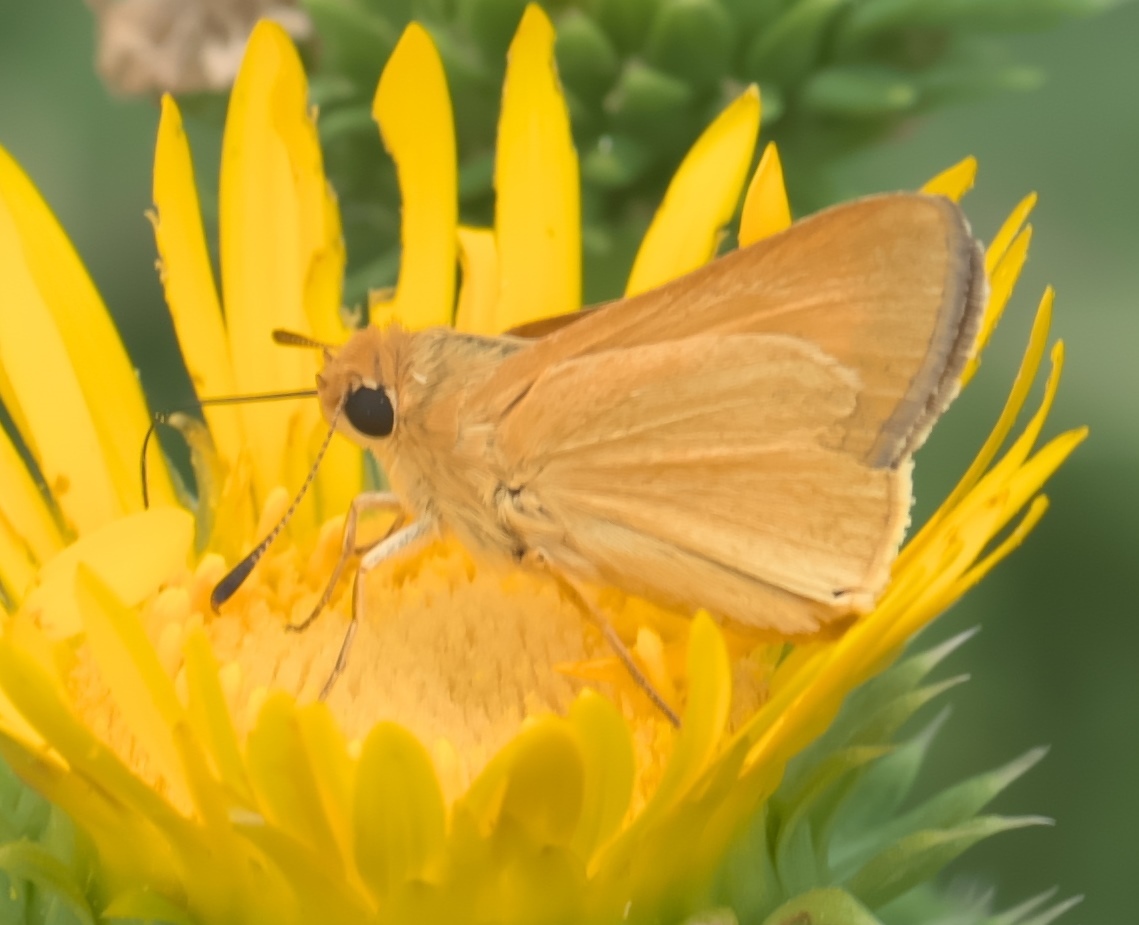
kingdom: Animalia
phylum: Arthropoda
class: Insecta
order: Lepidoptera
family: Hesperiidae
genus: Atrytone
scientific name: Atrytone arogos
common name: Arogos skipper
